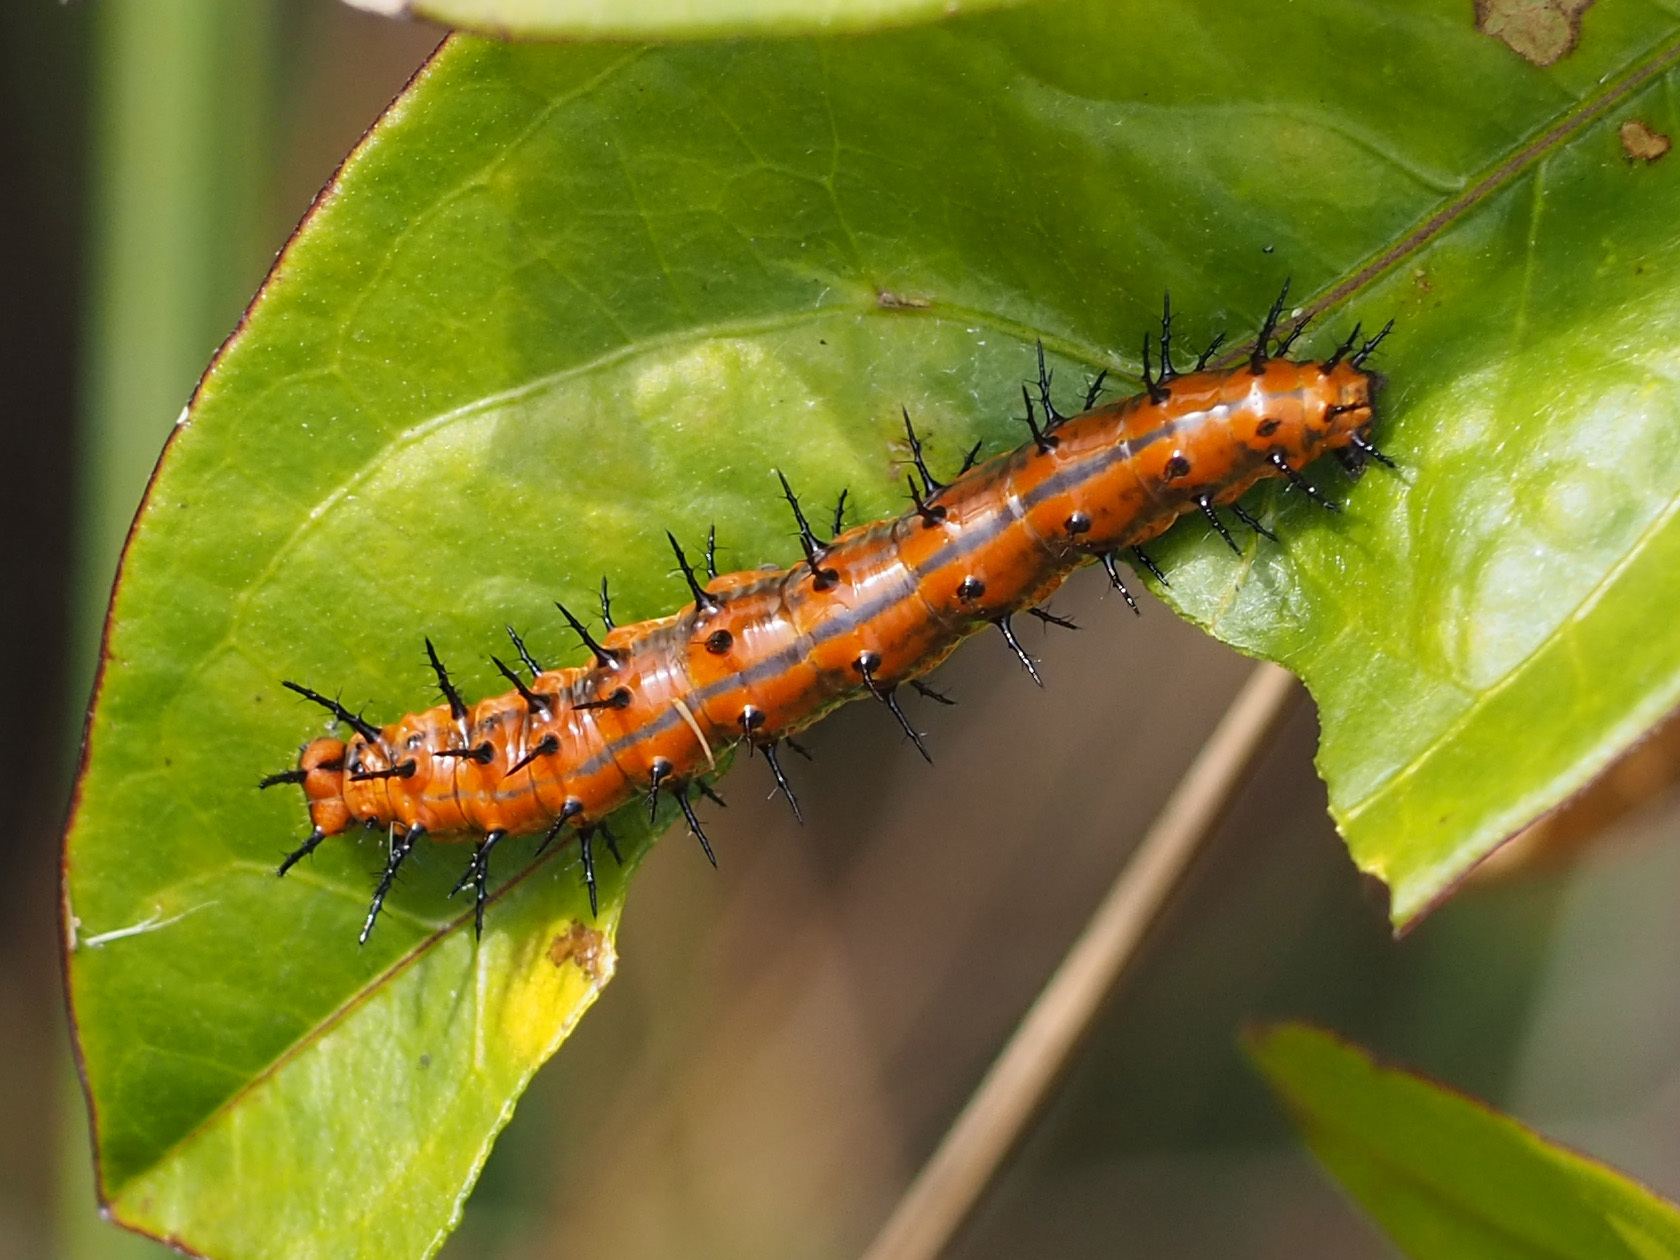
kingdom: Animalia
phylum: Arthropoda
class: Insecta
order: Lepidoptera
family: Nymphalidae
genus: Dione
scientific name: Dione vanillae
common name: Gulf fritillary
